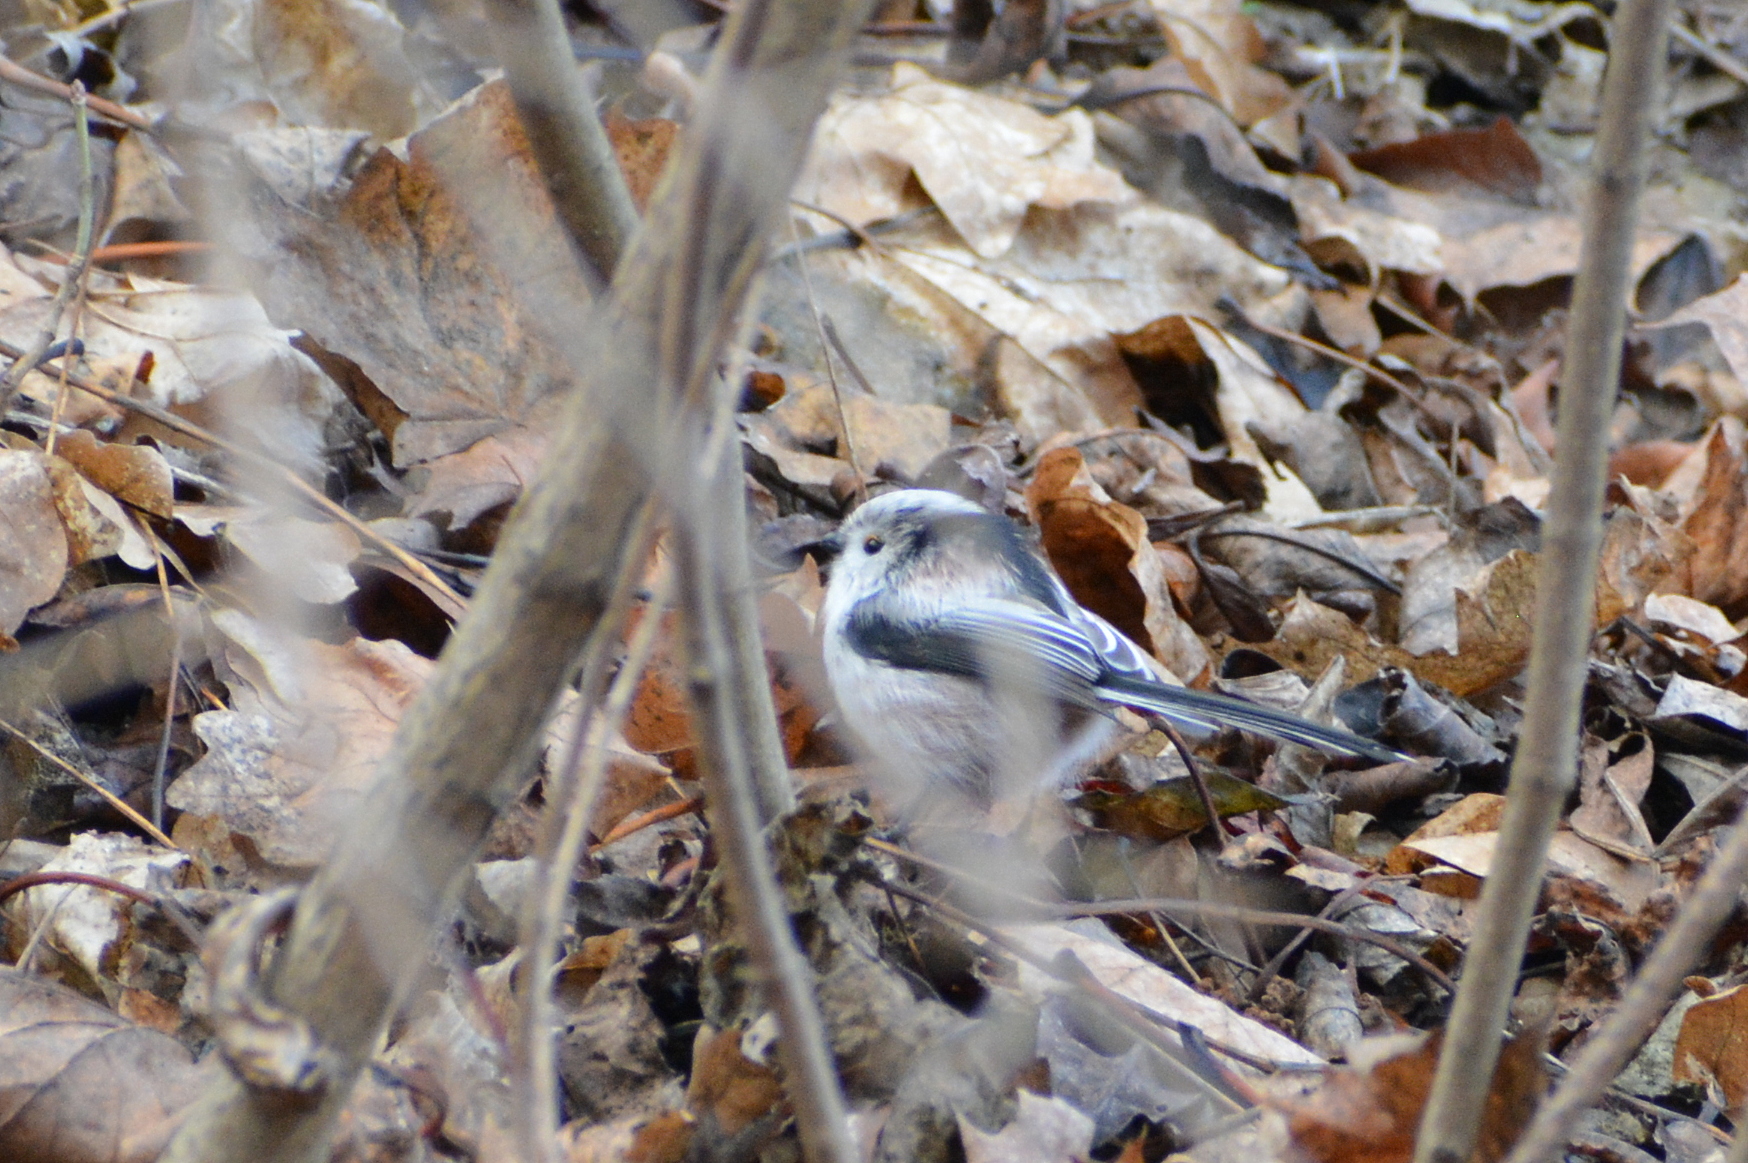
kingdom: Animalia
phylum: Chordata
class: Aves
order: Passeriformes
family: Aegithalidae
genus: Aegithalos
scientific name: Aegithalos caudatus
